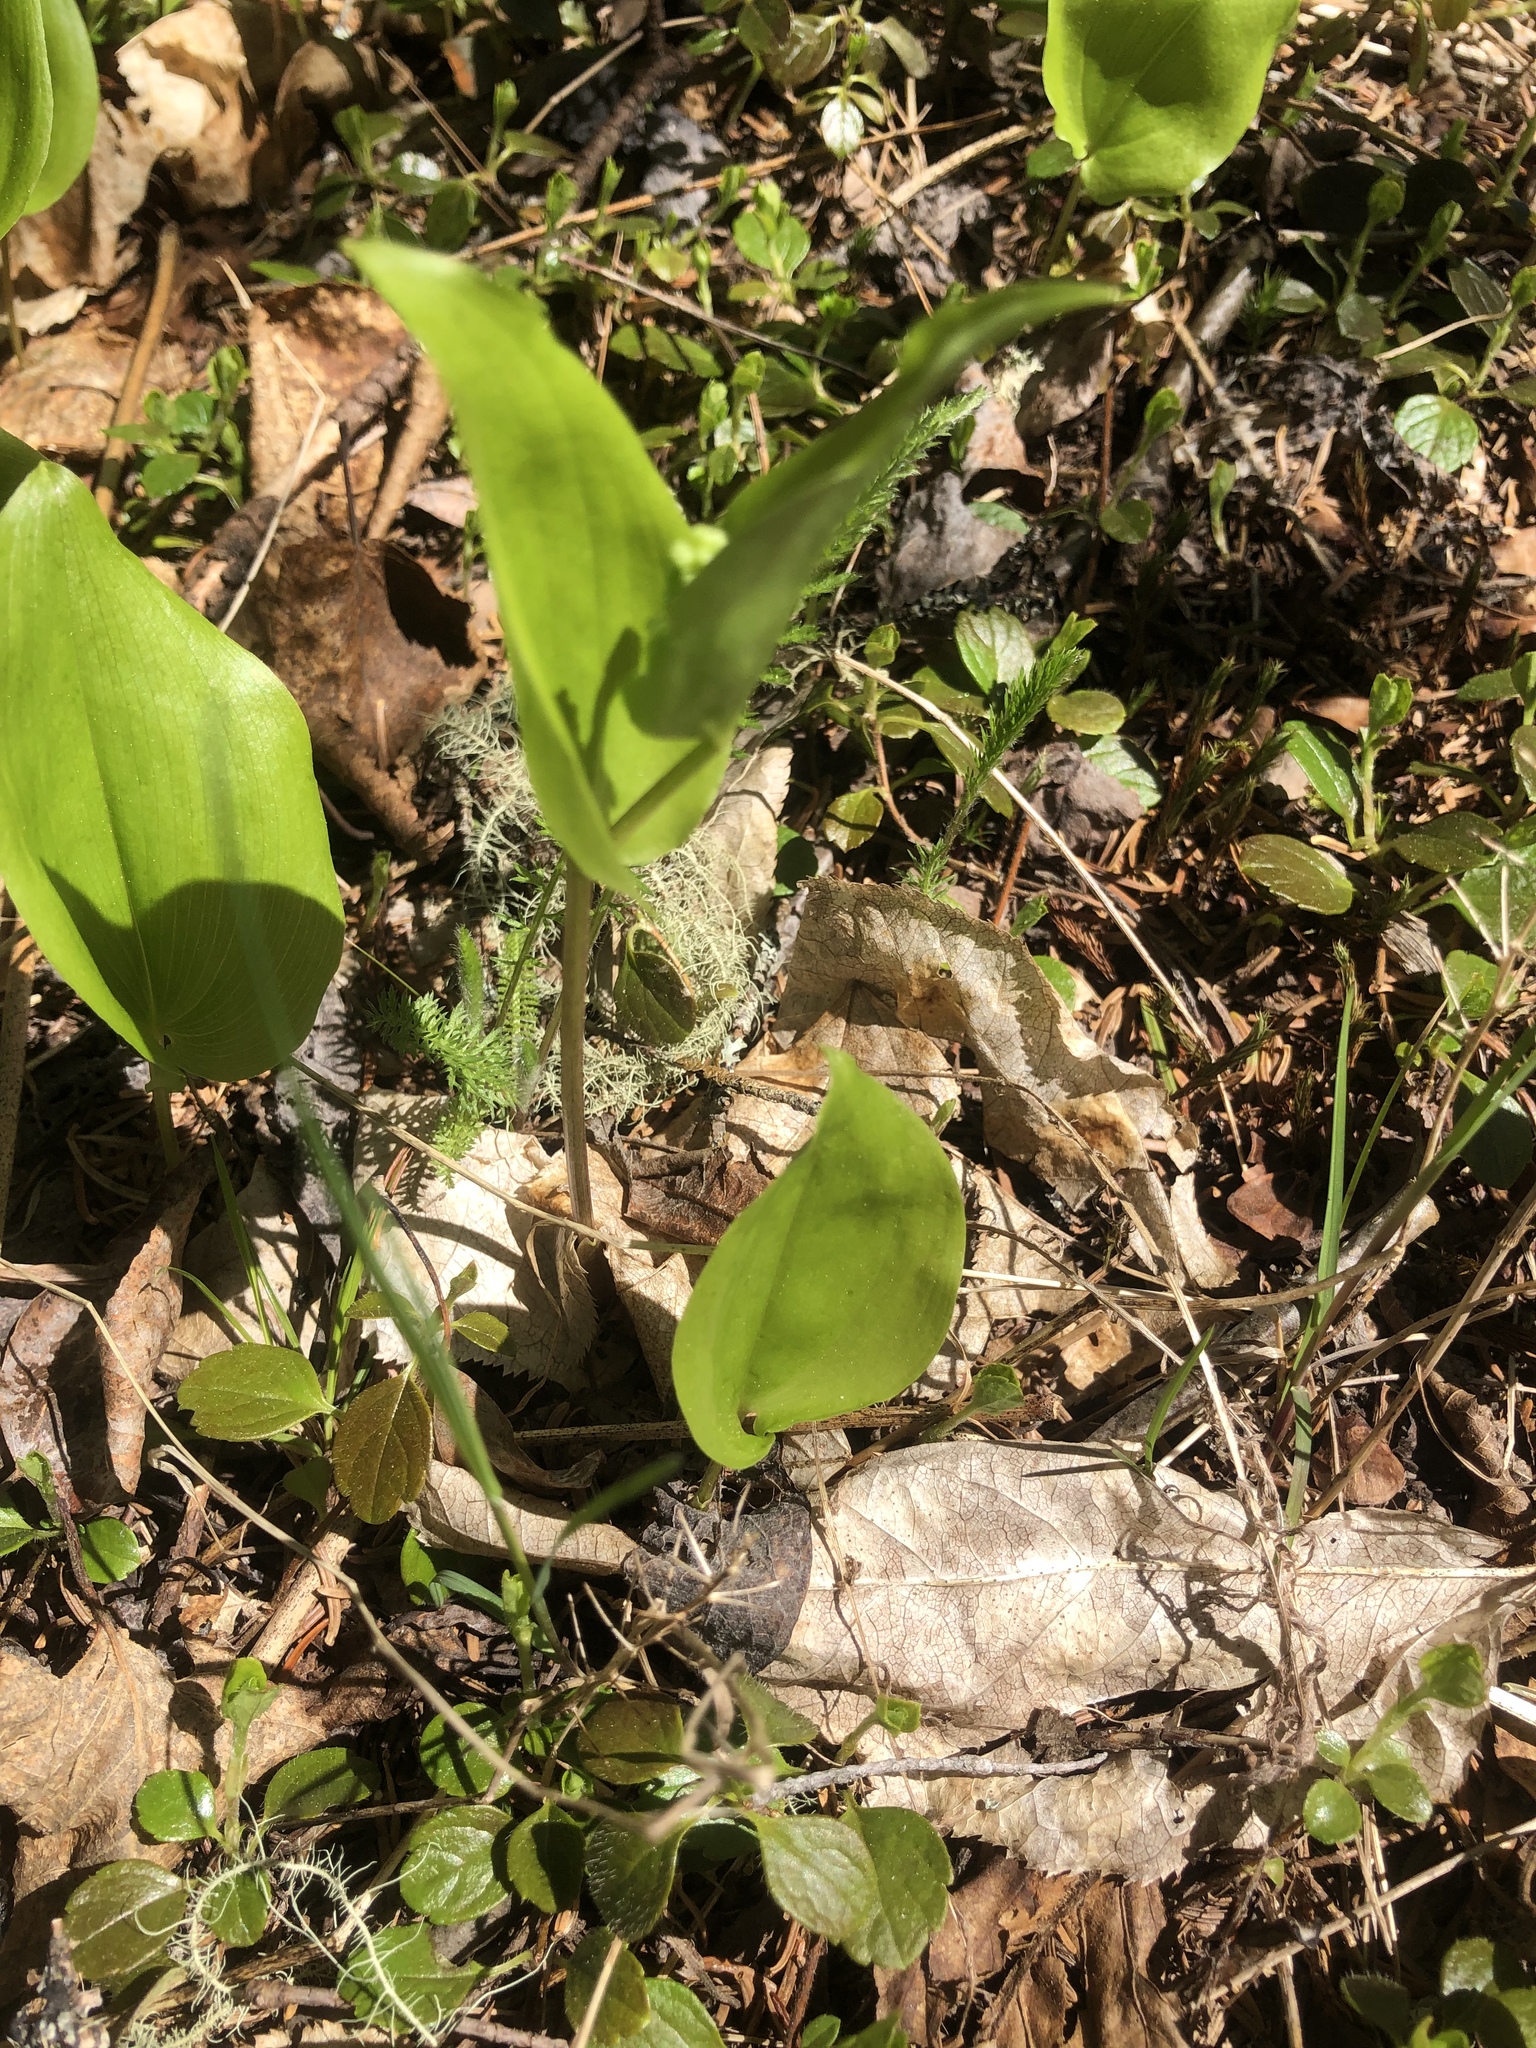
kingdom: Plantae
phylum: Tracheophyta
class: Liliopsida
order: Asparagales
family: Asparagaceae
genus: Maianthemum
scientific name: Maianthemum canadense
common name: False lily-of-the-valley
